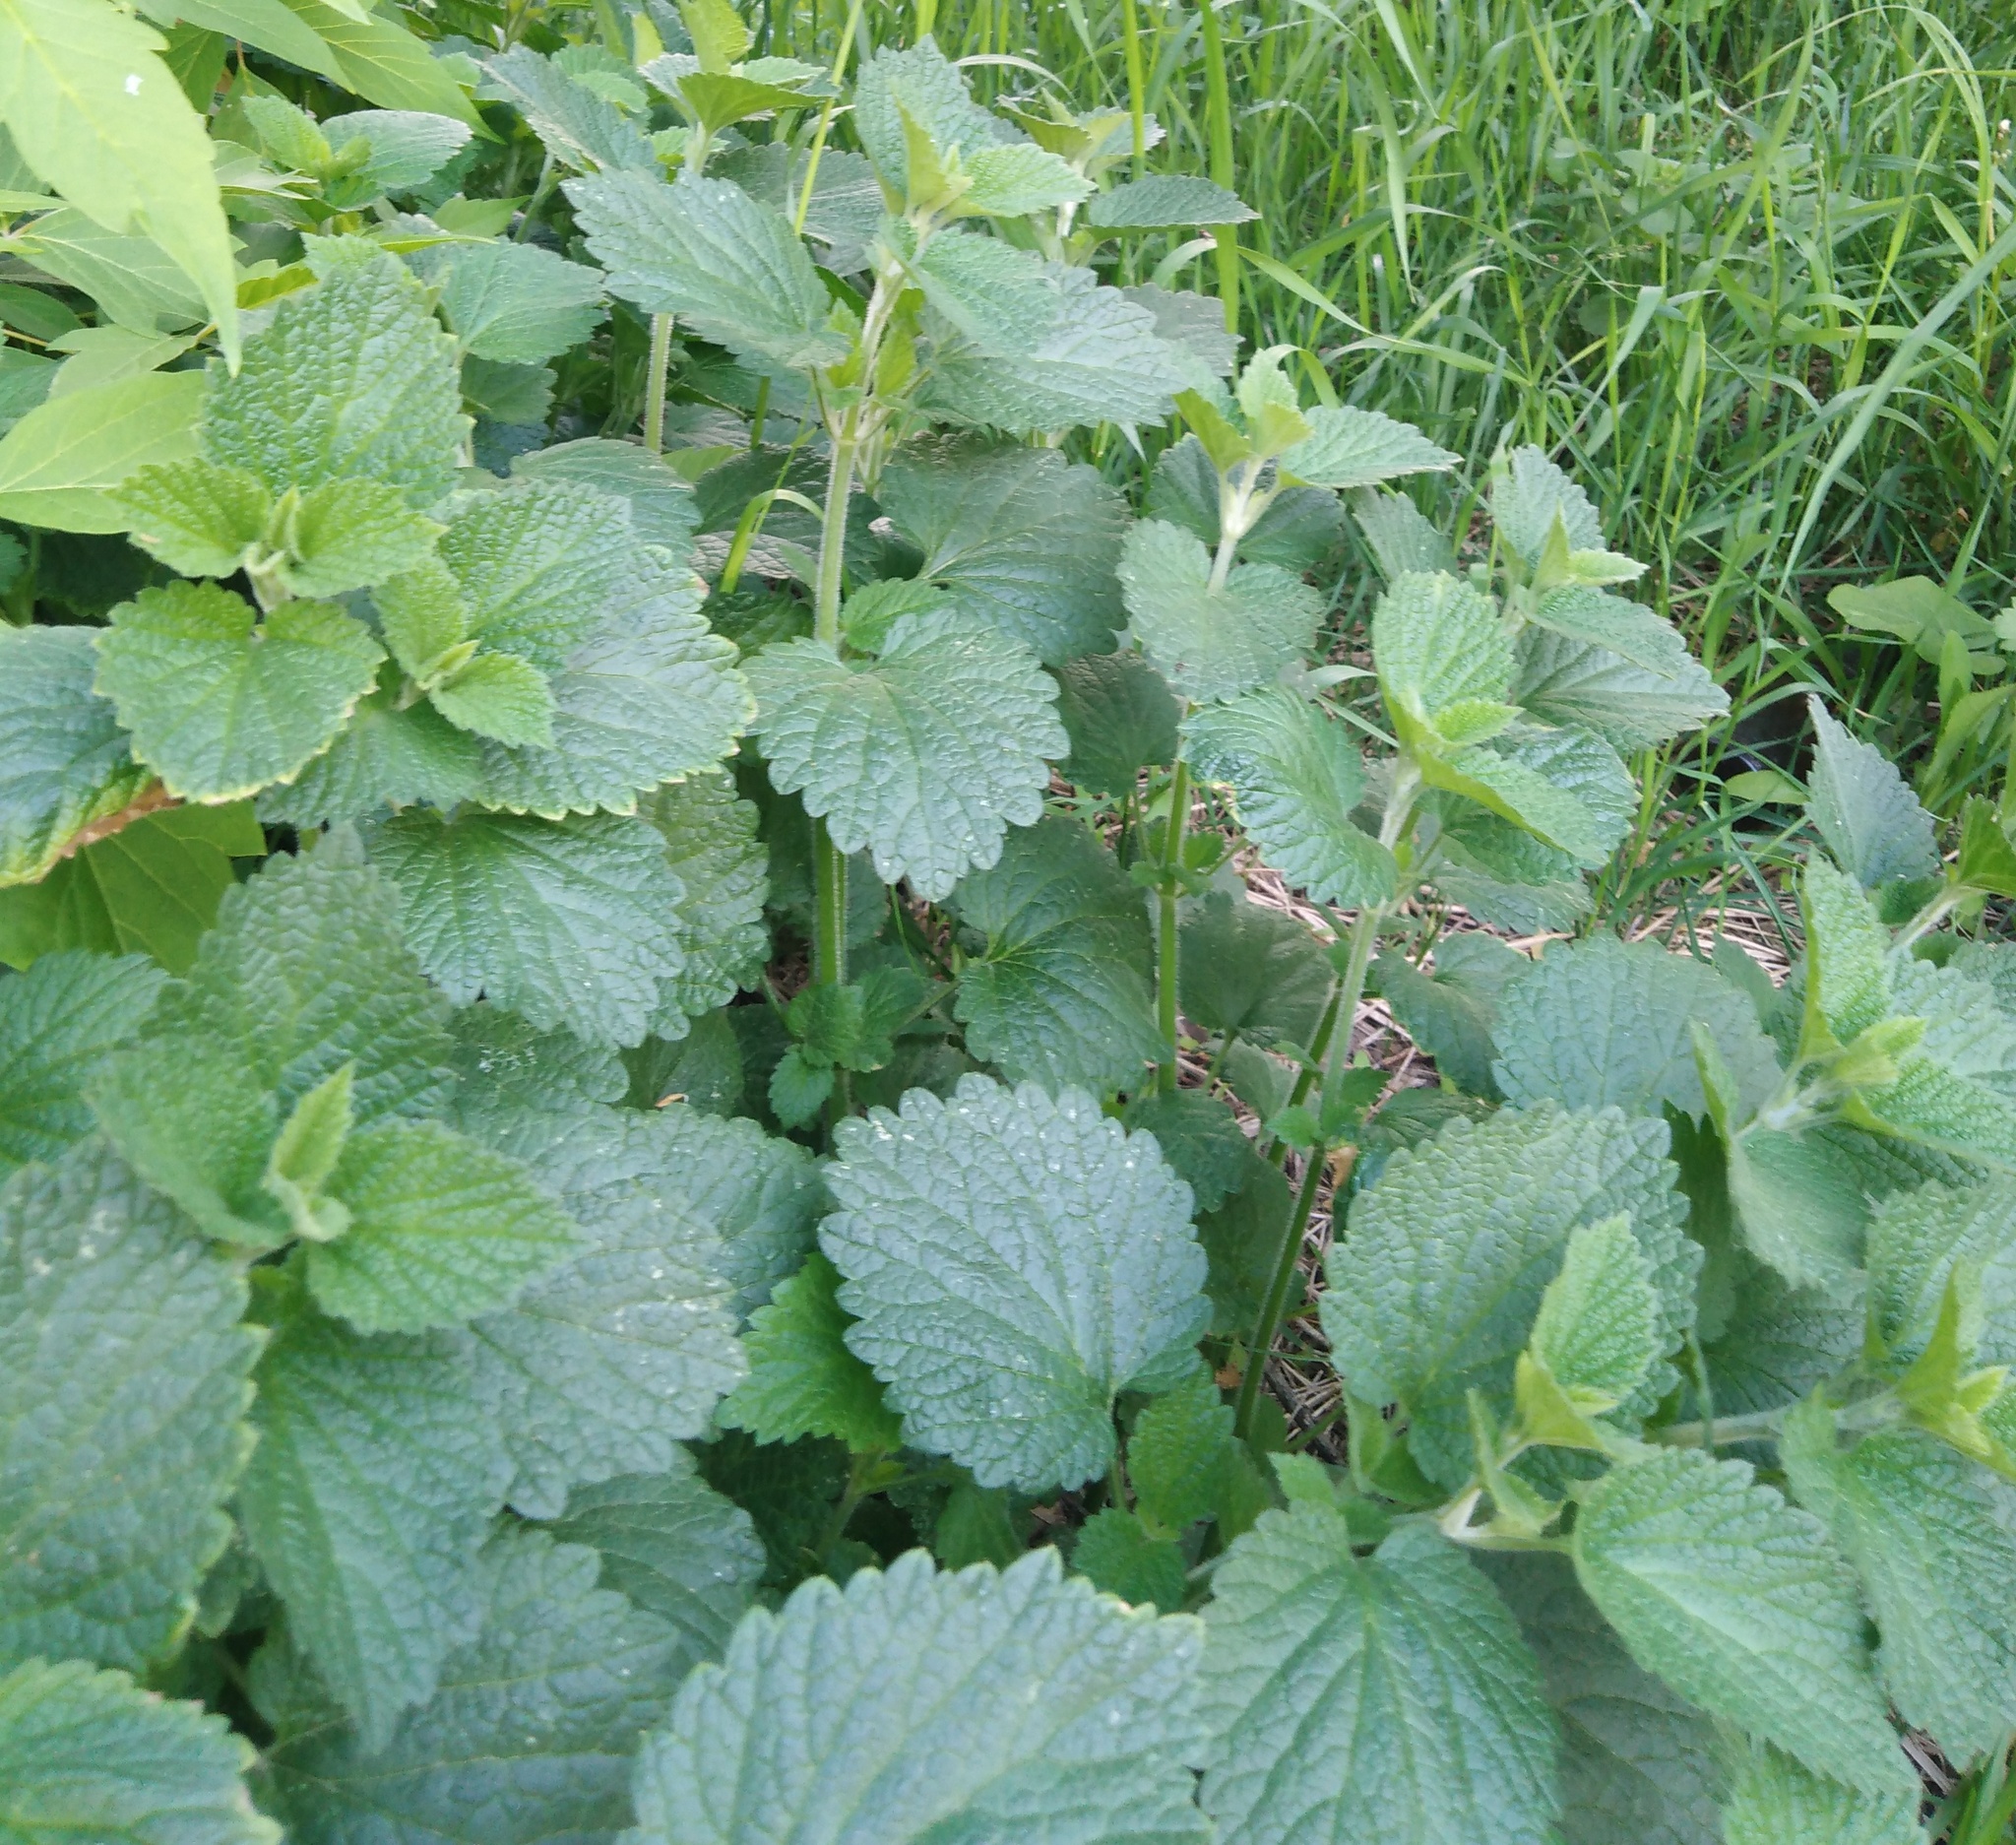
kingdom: Plantae
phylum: Tracheophyta
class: Magnoliopsida
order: Lamiales
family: Lamiaceae
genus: Ballota
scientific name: Ballota nigra
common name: Black horehound
